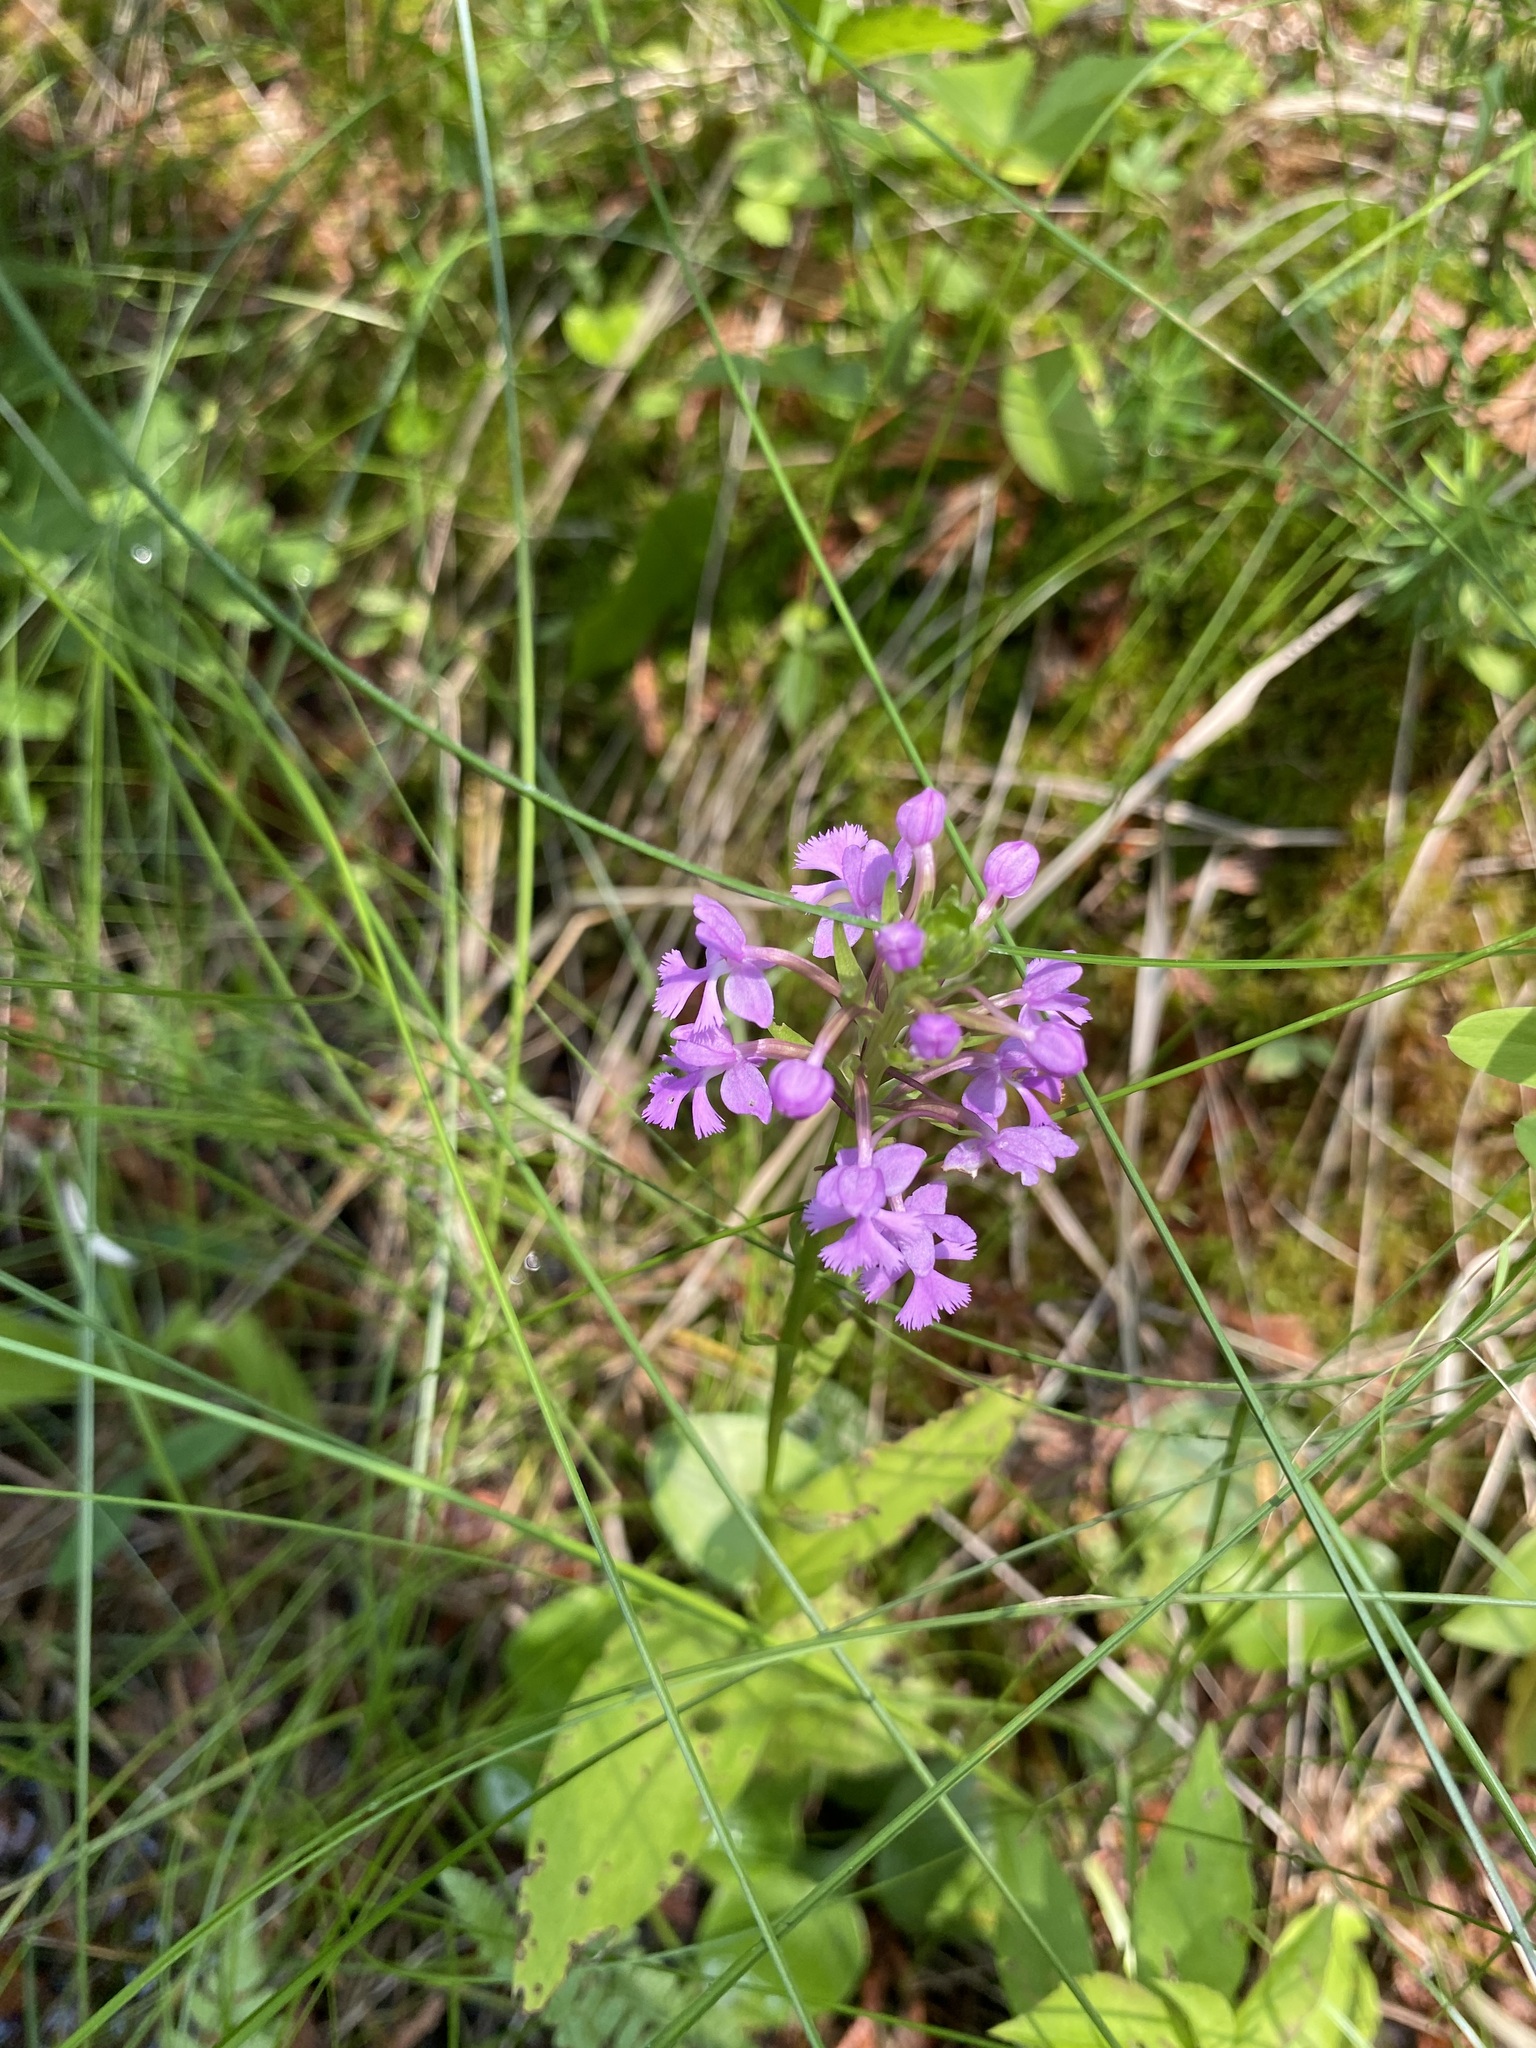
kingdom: Plantae
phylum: Tracheophyta
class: Liliopsida
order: Asparagales
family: Orchidaceae
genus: Platanthera
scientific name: Platanthera psycodes
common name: Lesser purple fringed orchid
